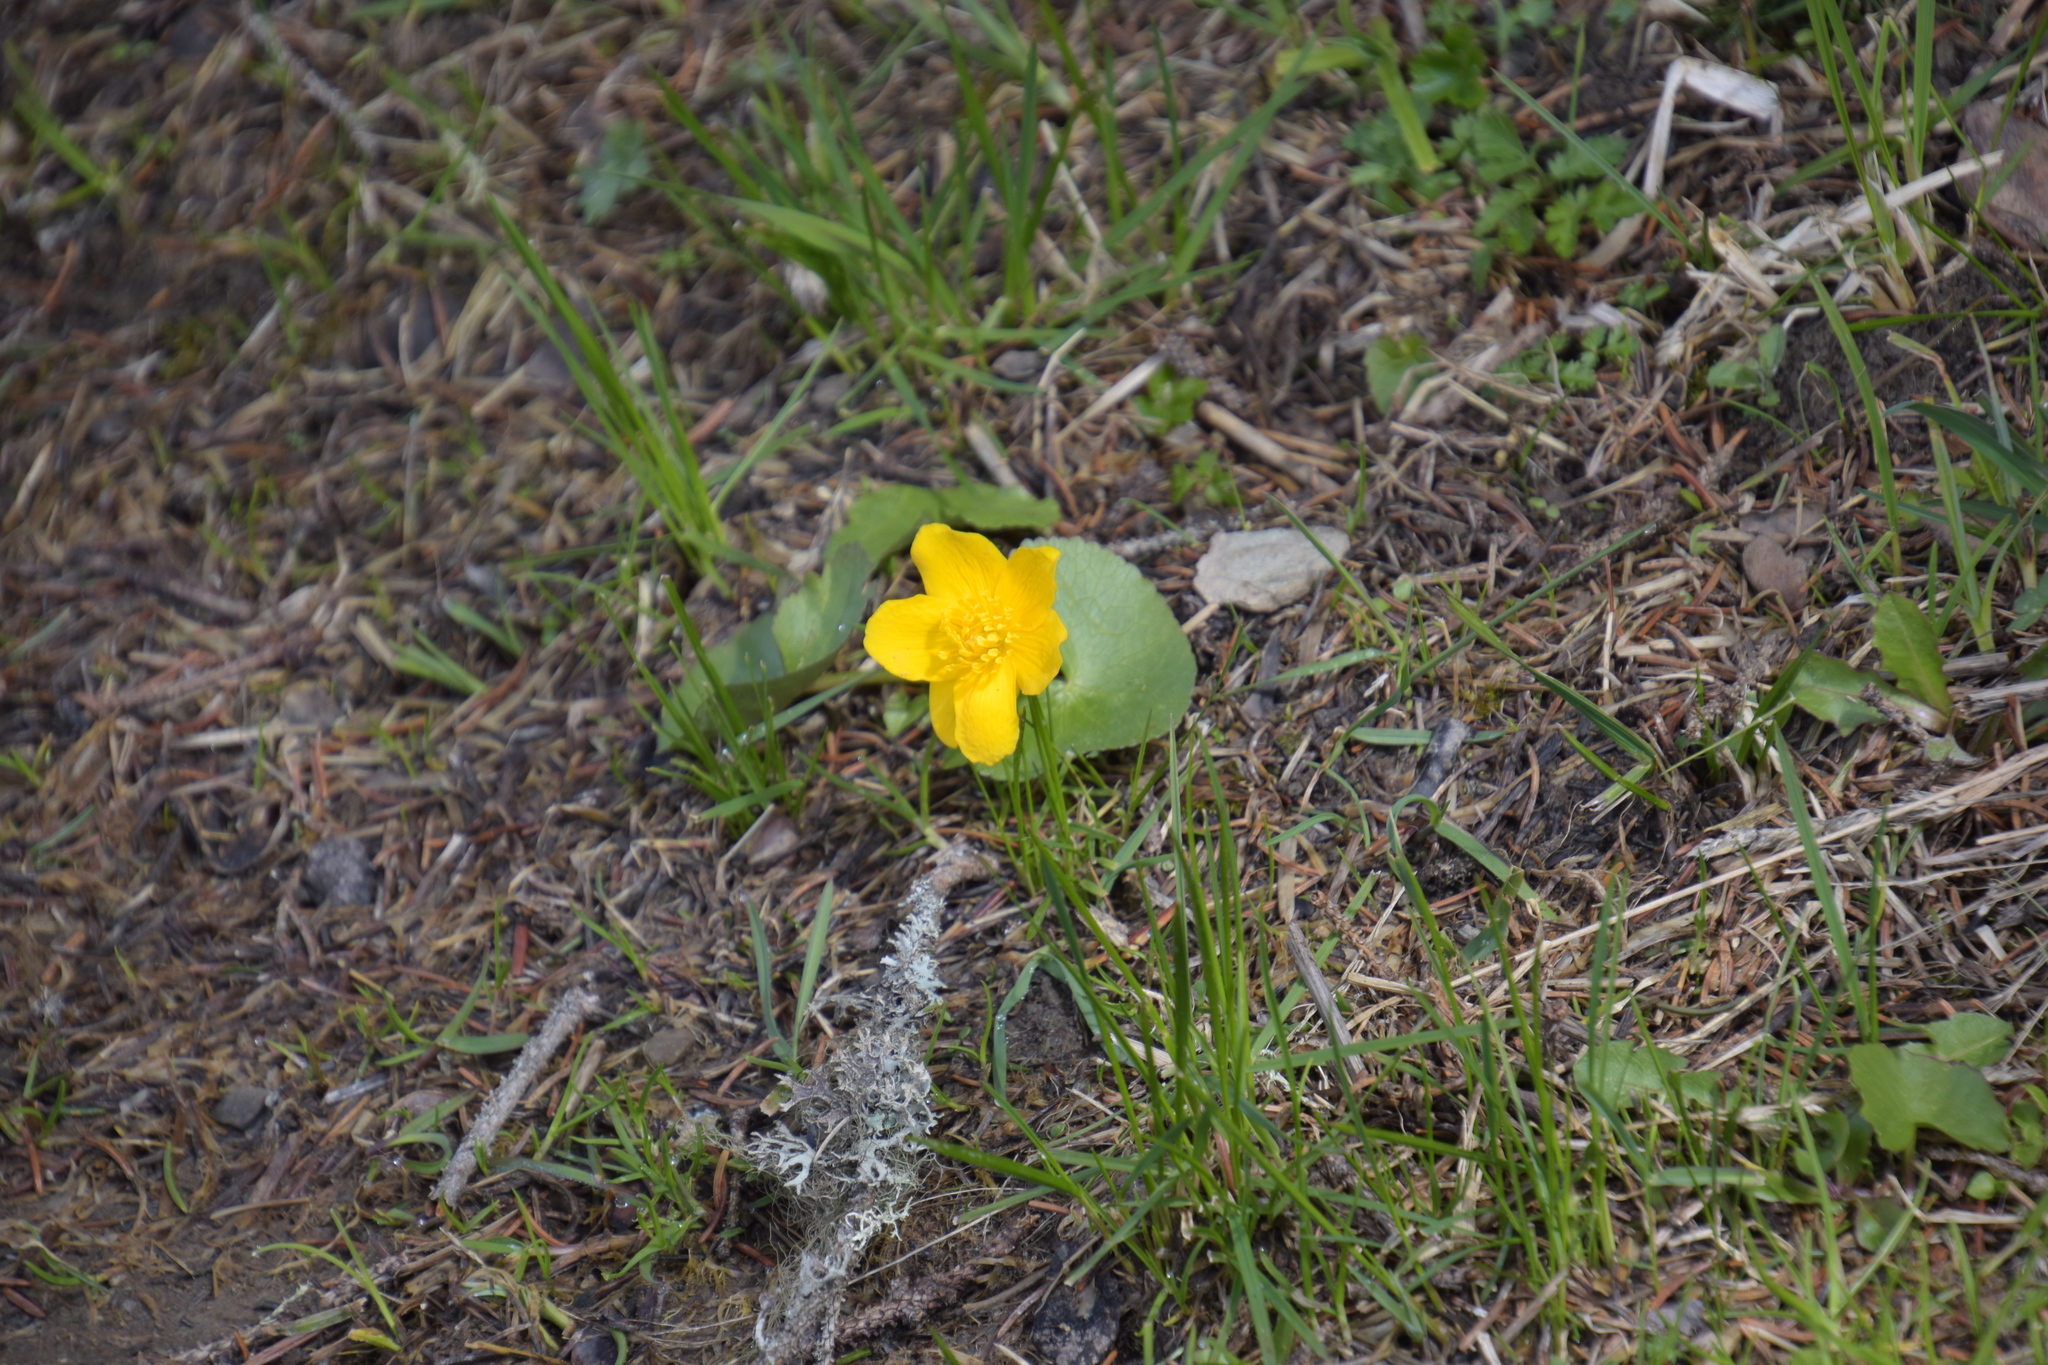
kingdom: Plantae
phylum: Tracheophyta
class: Magnoliopsida
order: Ranunculales
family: Ranunculaceae
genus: Caltha
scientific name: Caltha palustris
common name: Marsh marigold
